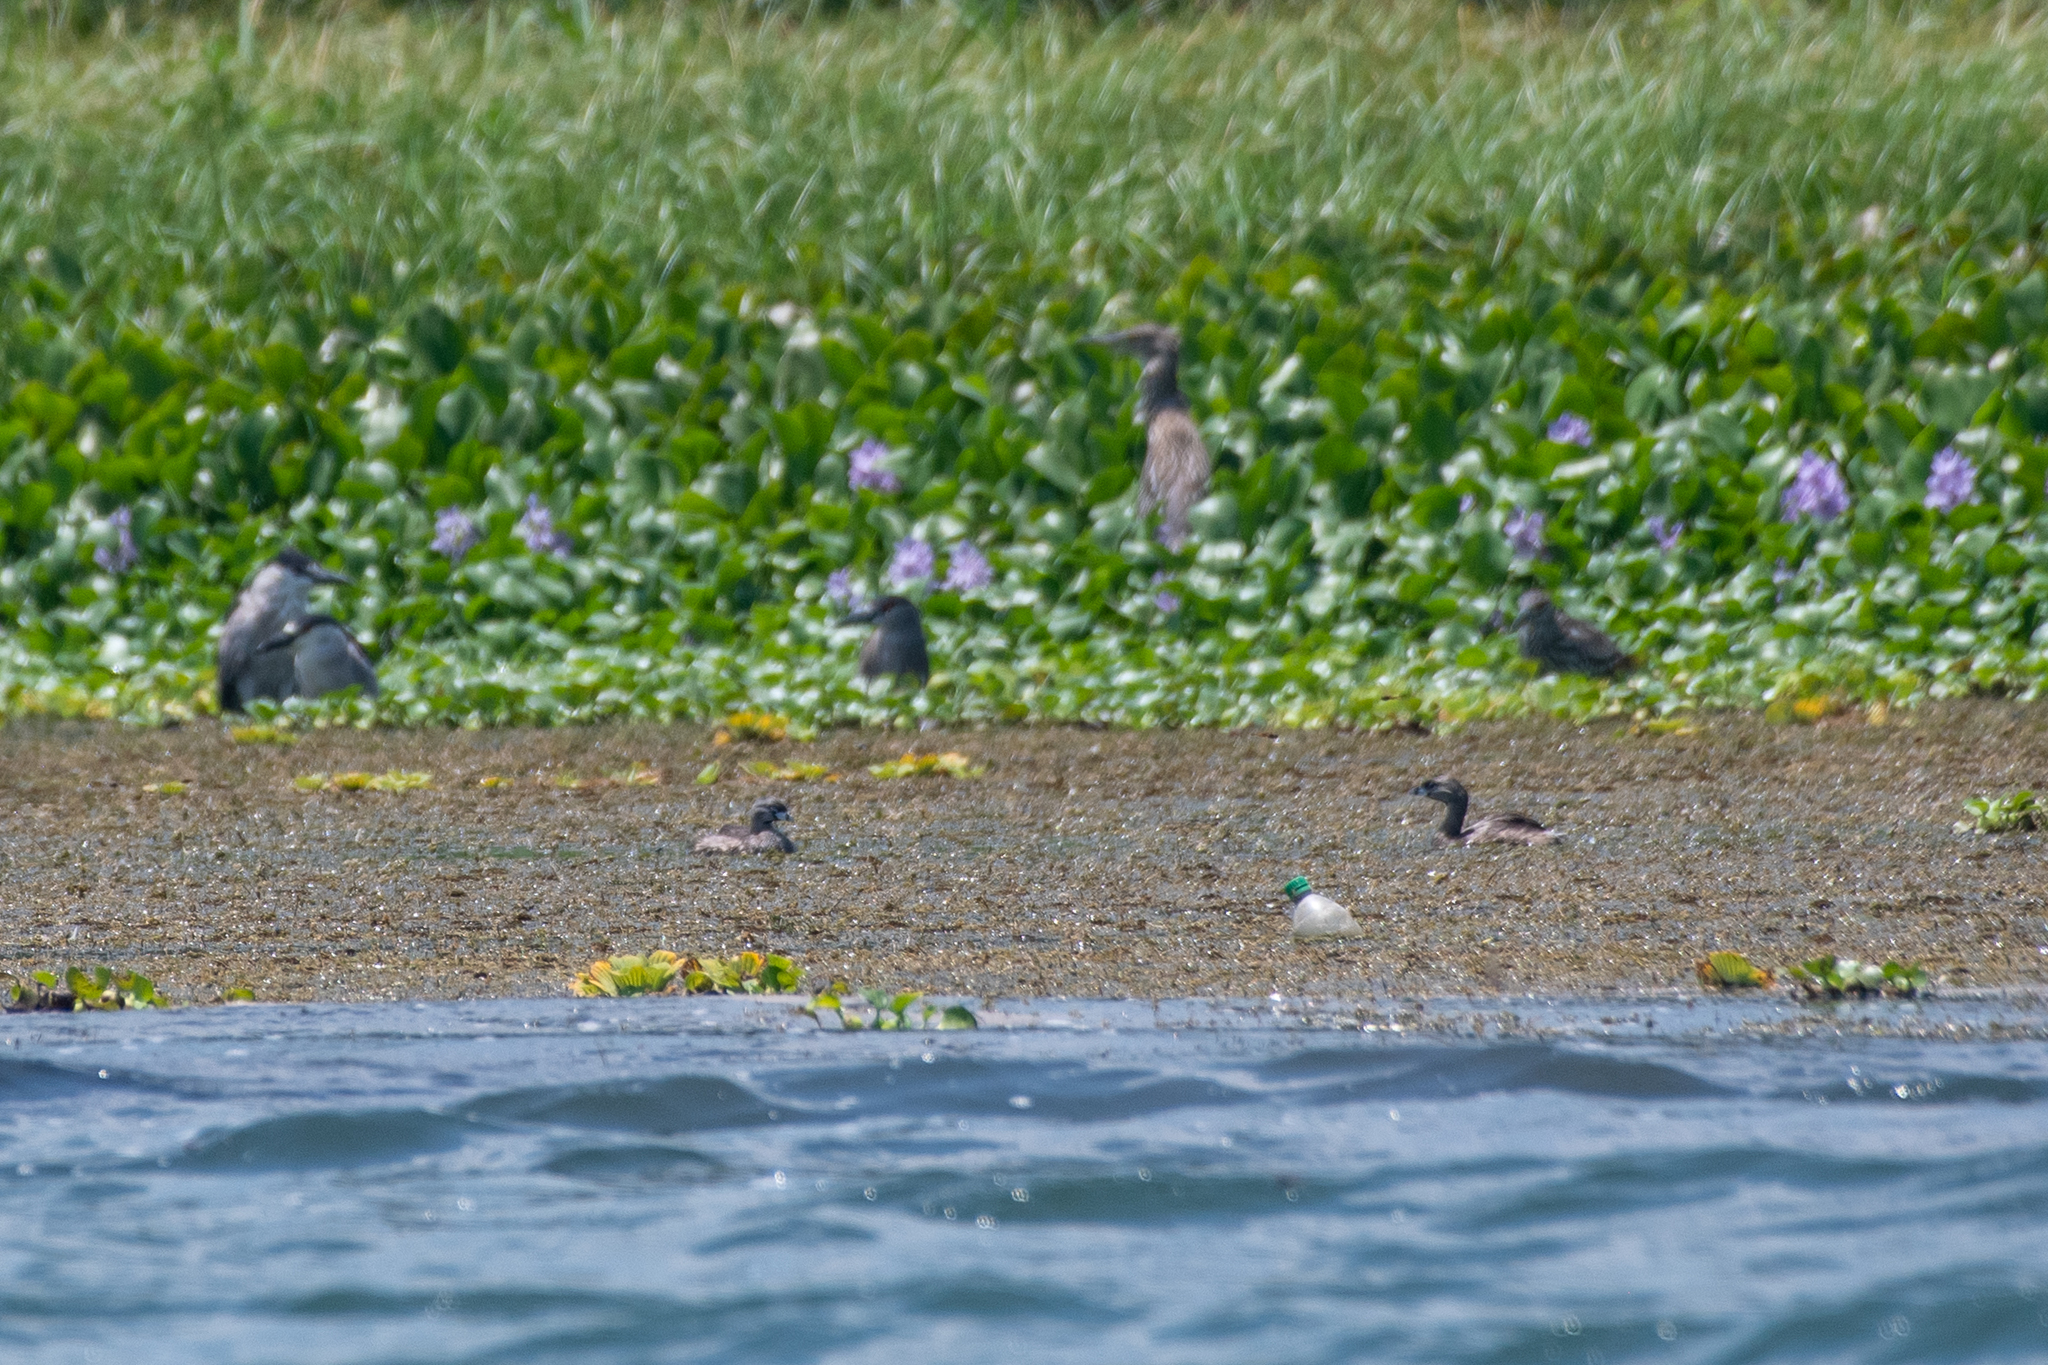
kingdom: Animalia
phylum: Chordata
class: Aves
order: Podicipediformes
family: Podicipedidae
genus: Podilymbus
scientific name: Podilymbus podiceps
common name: Pied-billed grebe
